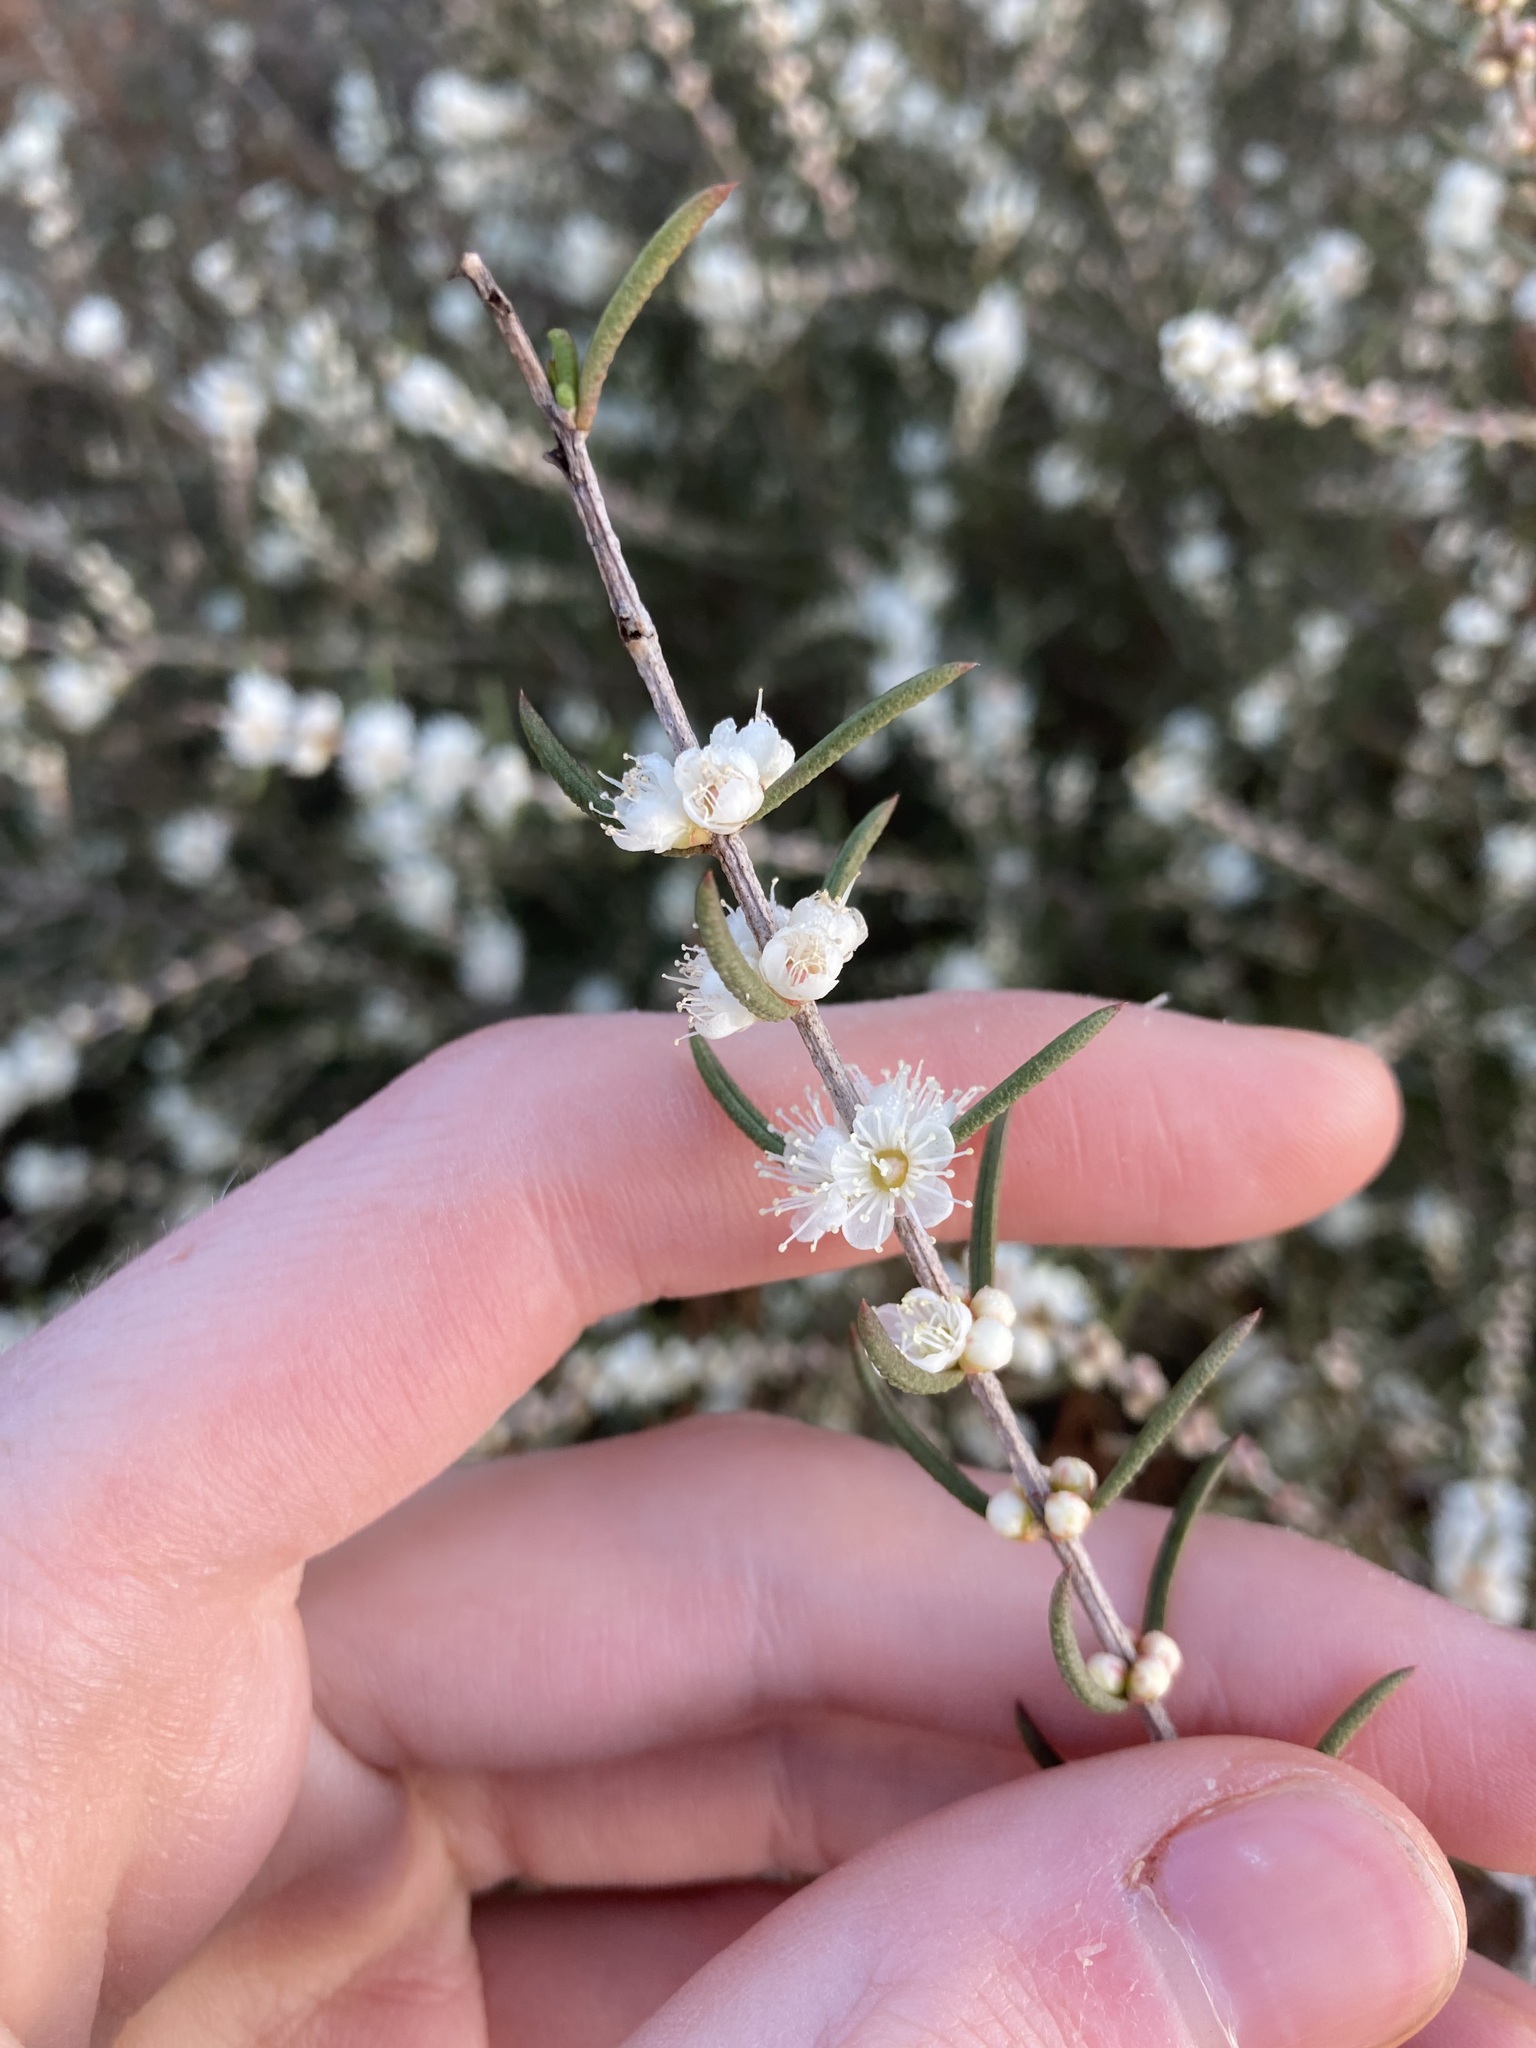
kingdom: Plantae
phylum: Tracheophyta
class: Magnoliopsida
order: Myrtales
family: Myrtaceae
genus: Hypocalymma
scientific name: Hypocalymma angustifolium
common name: White myrtle
